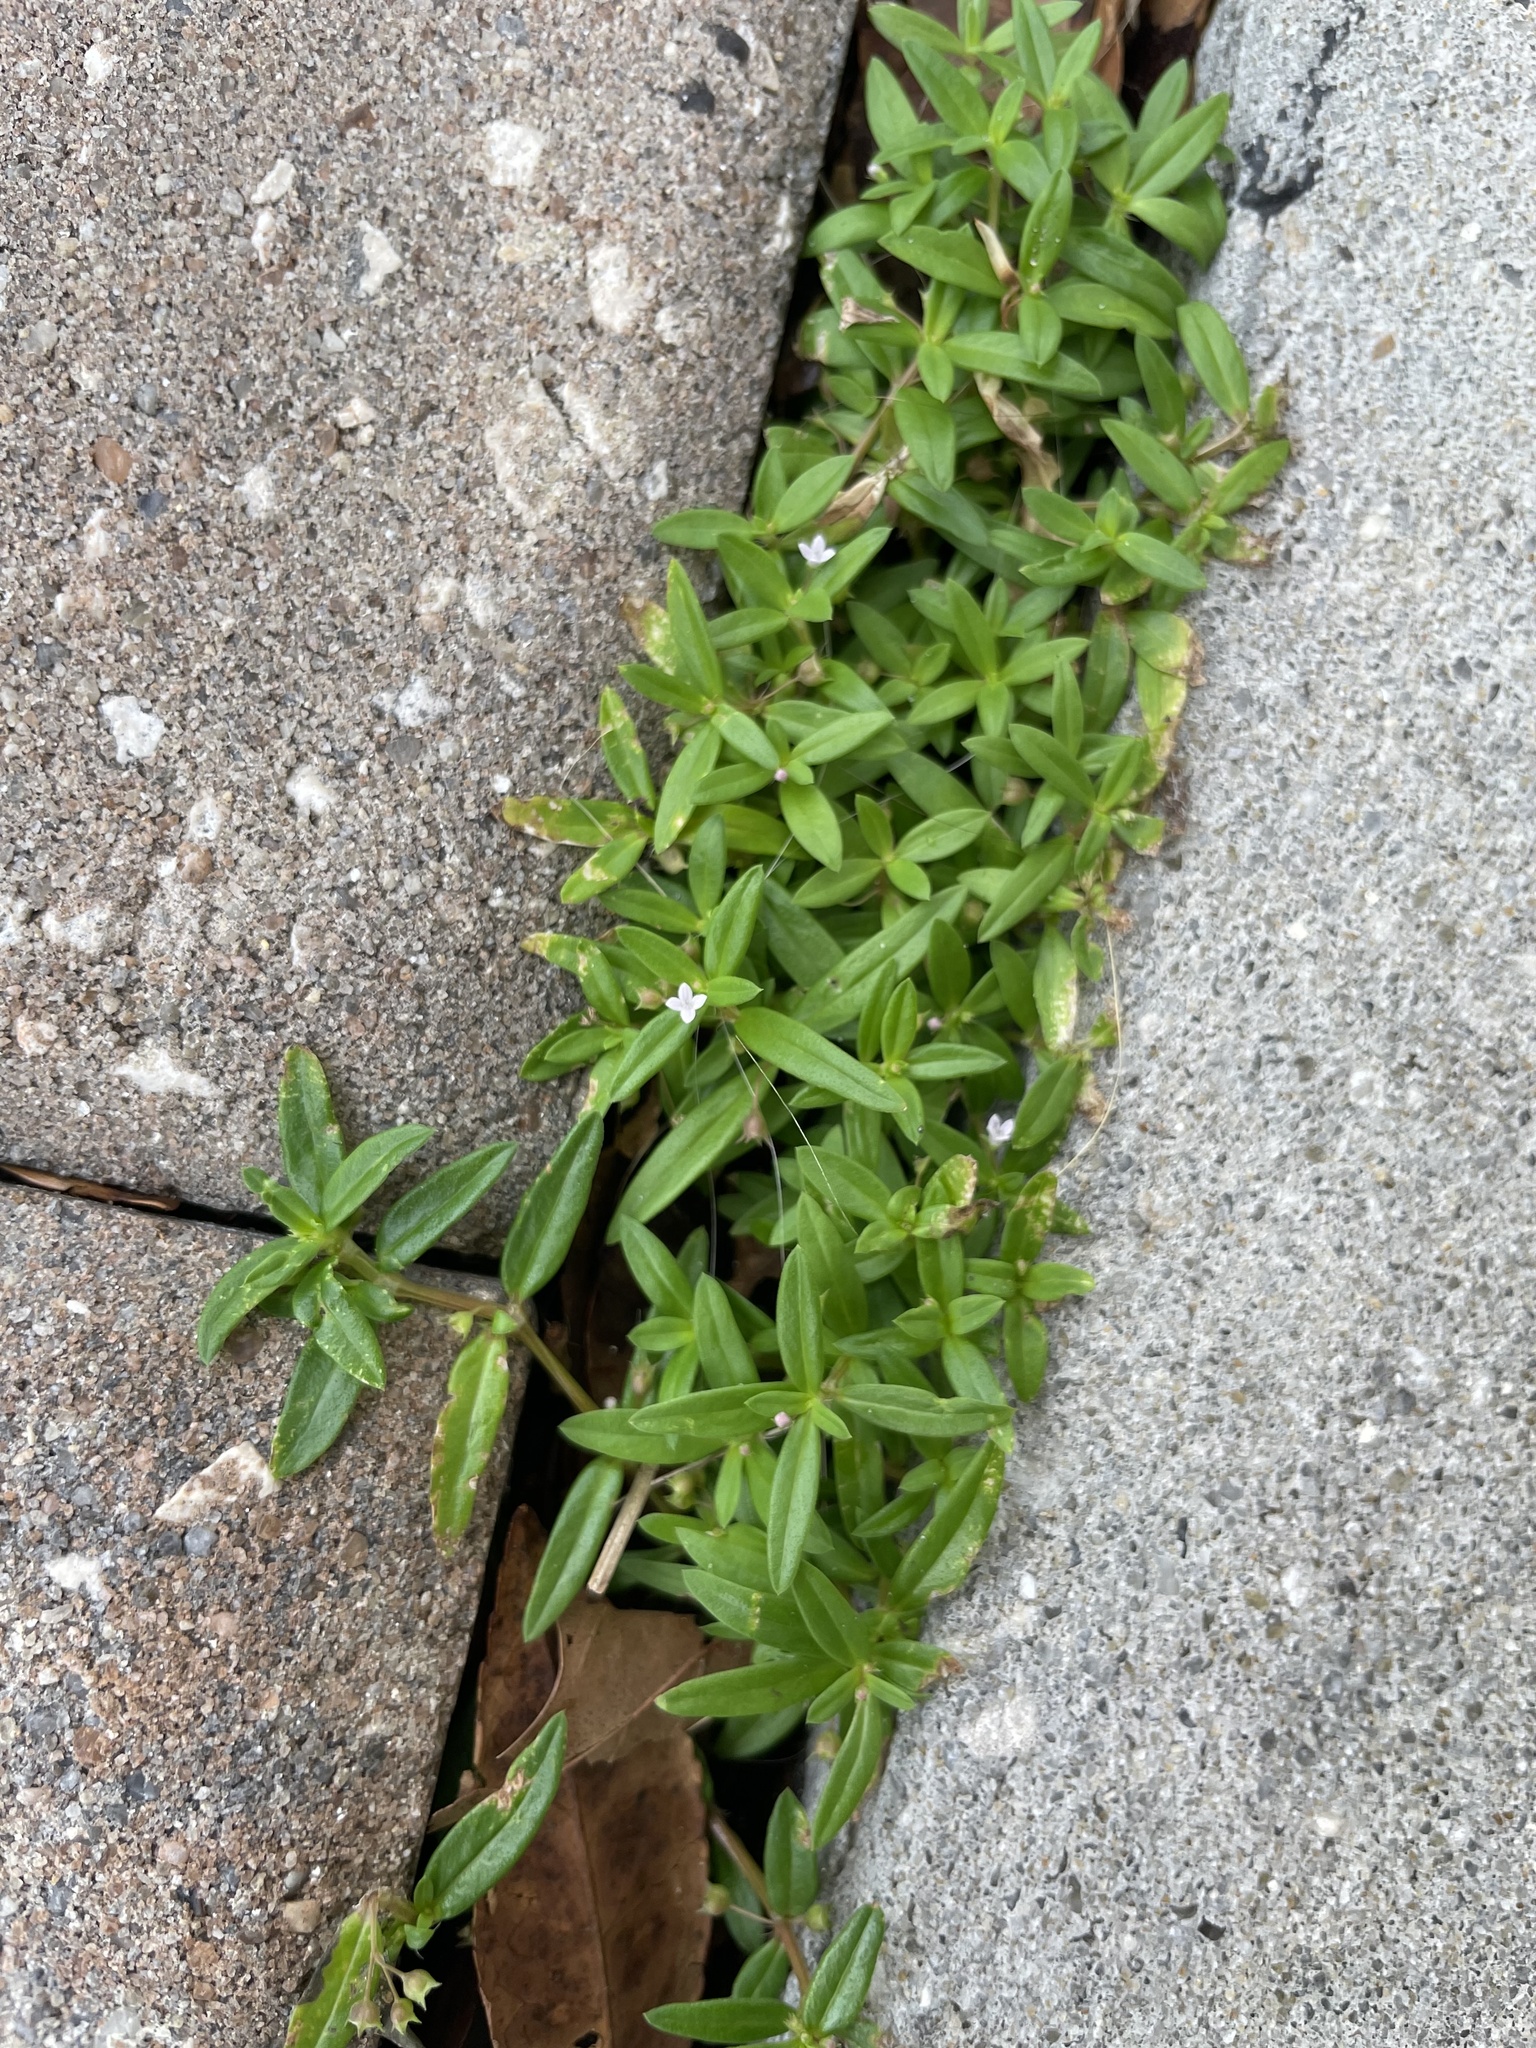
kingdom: Plantae
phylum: Tracheophyta
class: Magnoliopsida
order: Gentianales
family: Rubiaceae
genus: Oldenlandia
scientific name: Oldenlandia corymbosa
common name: Flat-top mille graines
